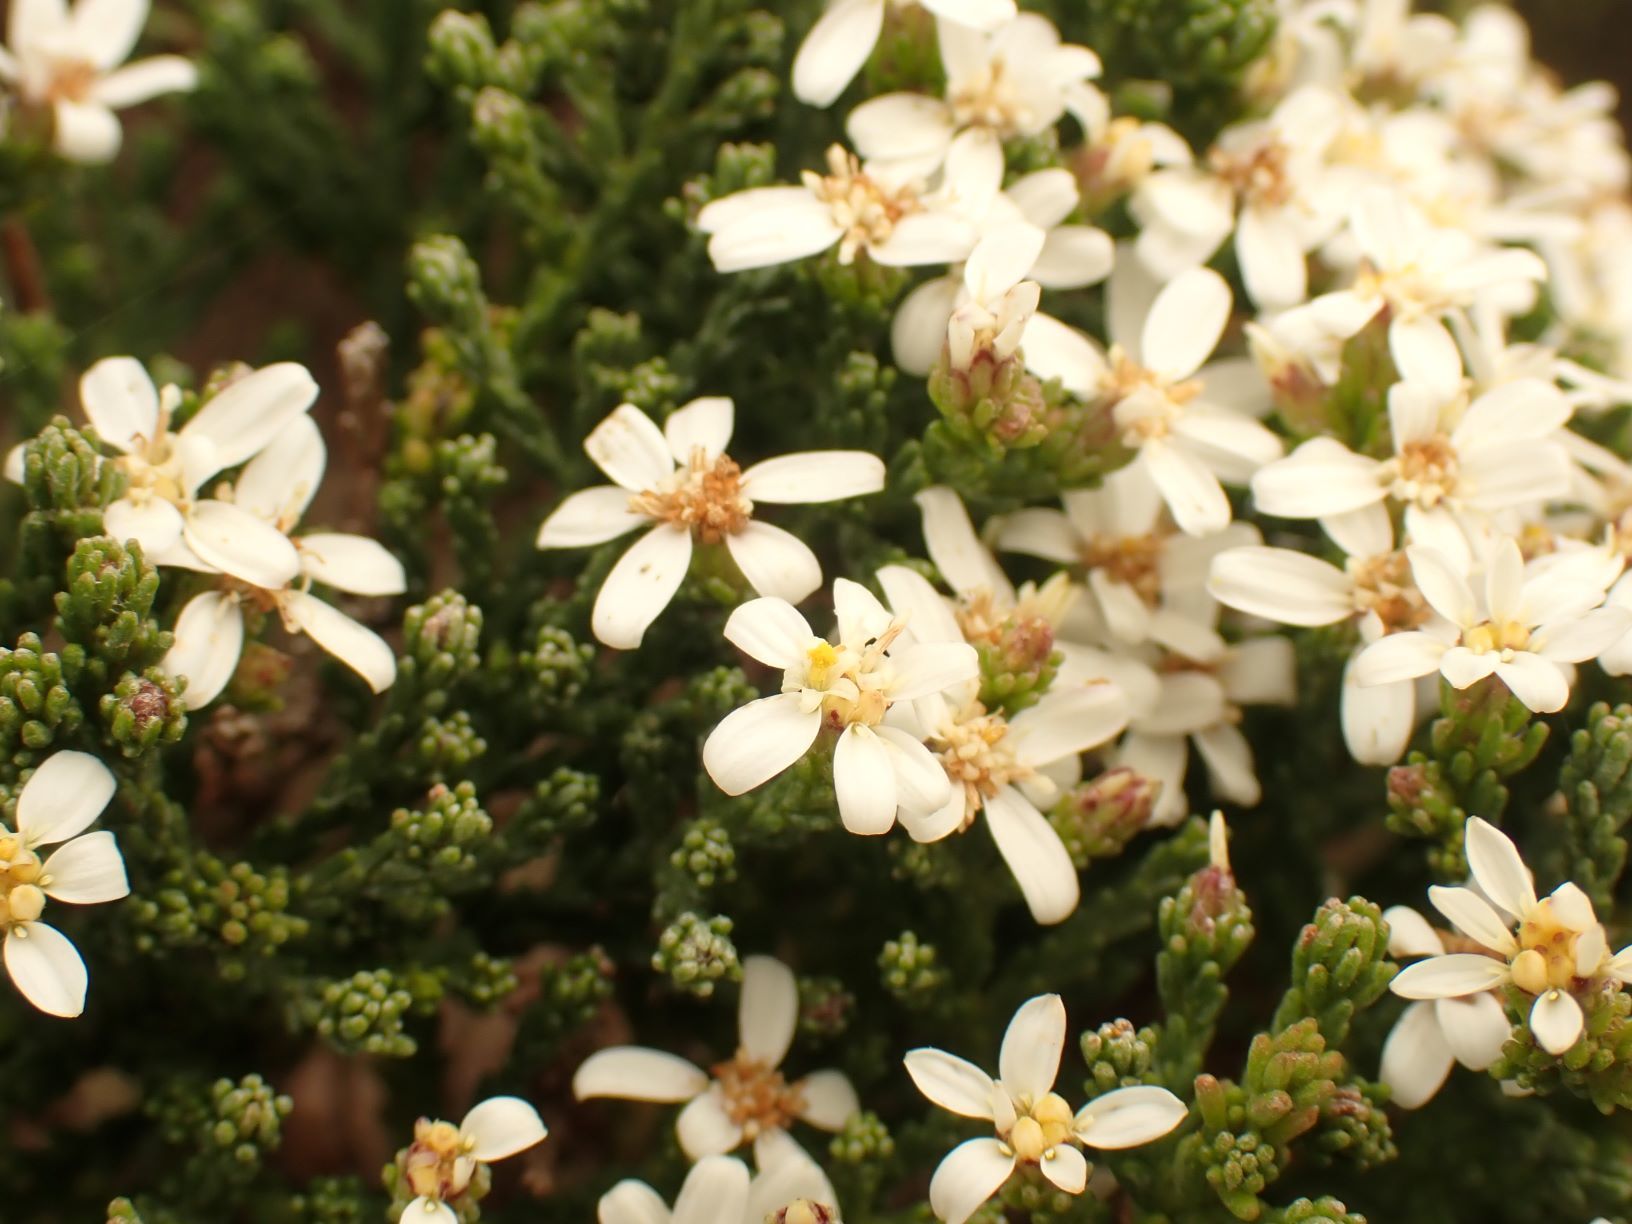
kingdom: Plantae
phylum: Tracheophyta
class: Magnoliopsida
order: Asterales
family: Asteraceae
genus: Olearia
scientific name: Olearia teretifolia
